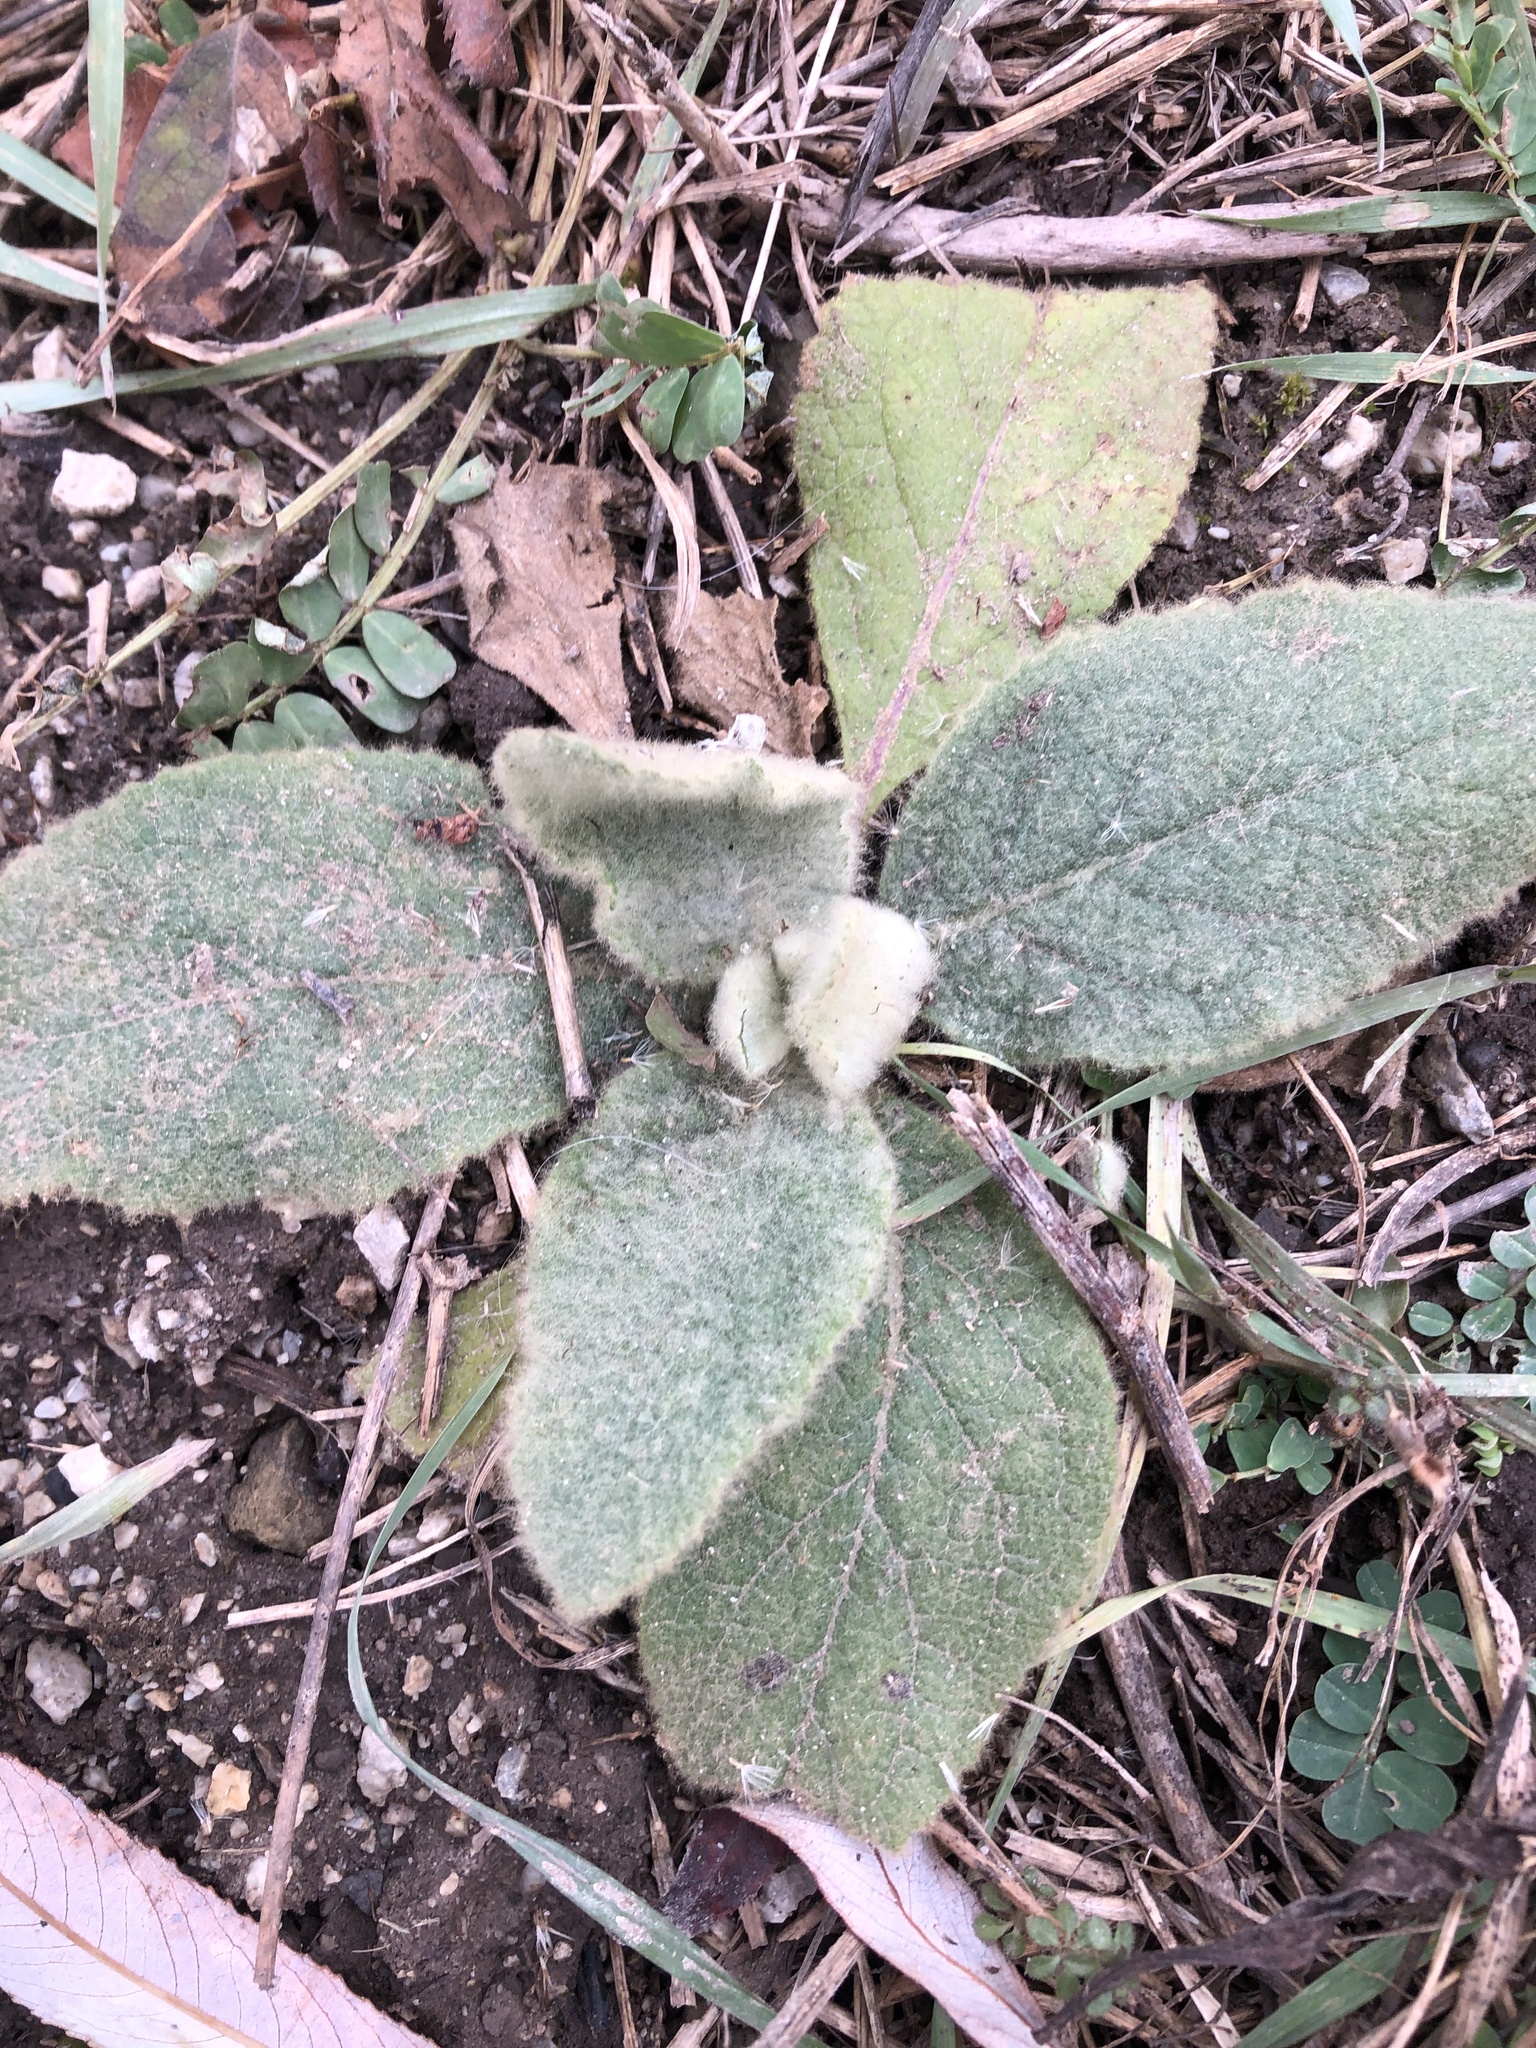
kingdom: Plantae
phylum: Tracheophyta
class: Magnoliopsida
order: Lamiales
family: Scrophulariaceae
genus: Verbascum
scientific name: Verbascum thapsus
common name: Common mullein
